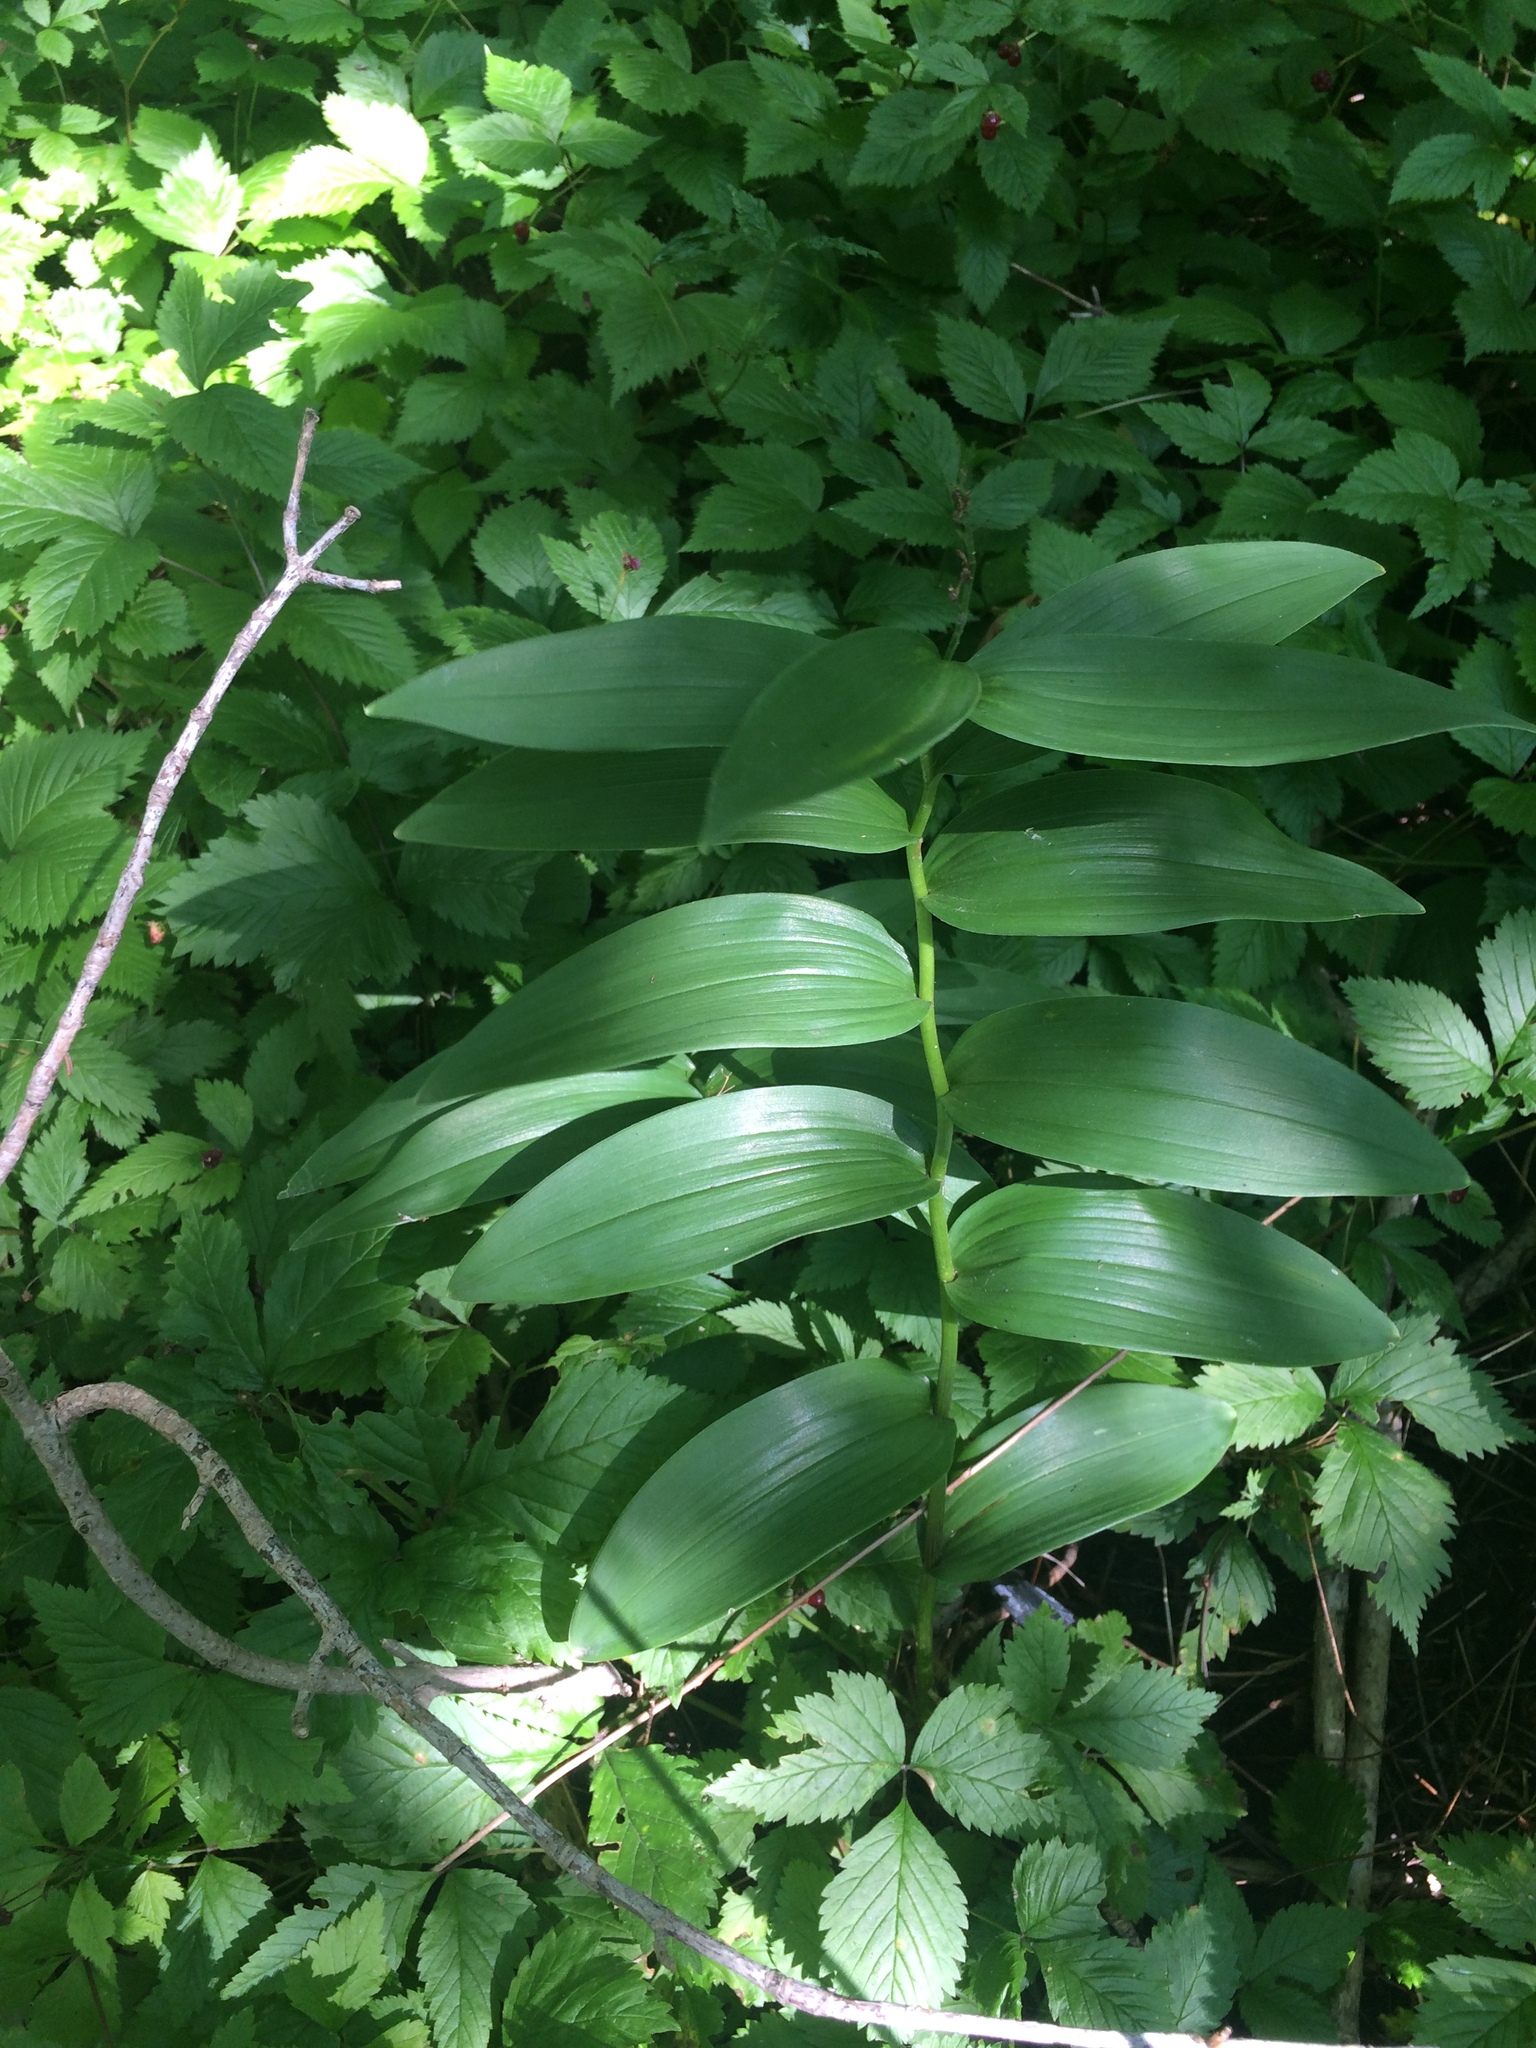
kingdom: Plantae
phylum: Tracheophyta
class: Liliopsida
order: Asparagales
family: Asparagaceae
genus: Maianthemum
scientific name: Maianthemum stellatum
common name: Little false solomon's seal
